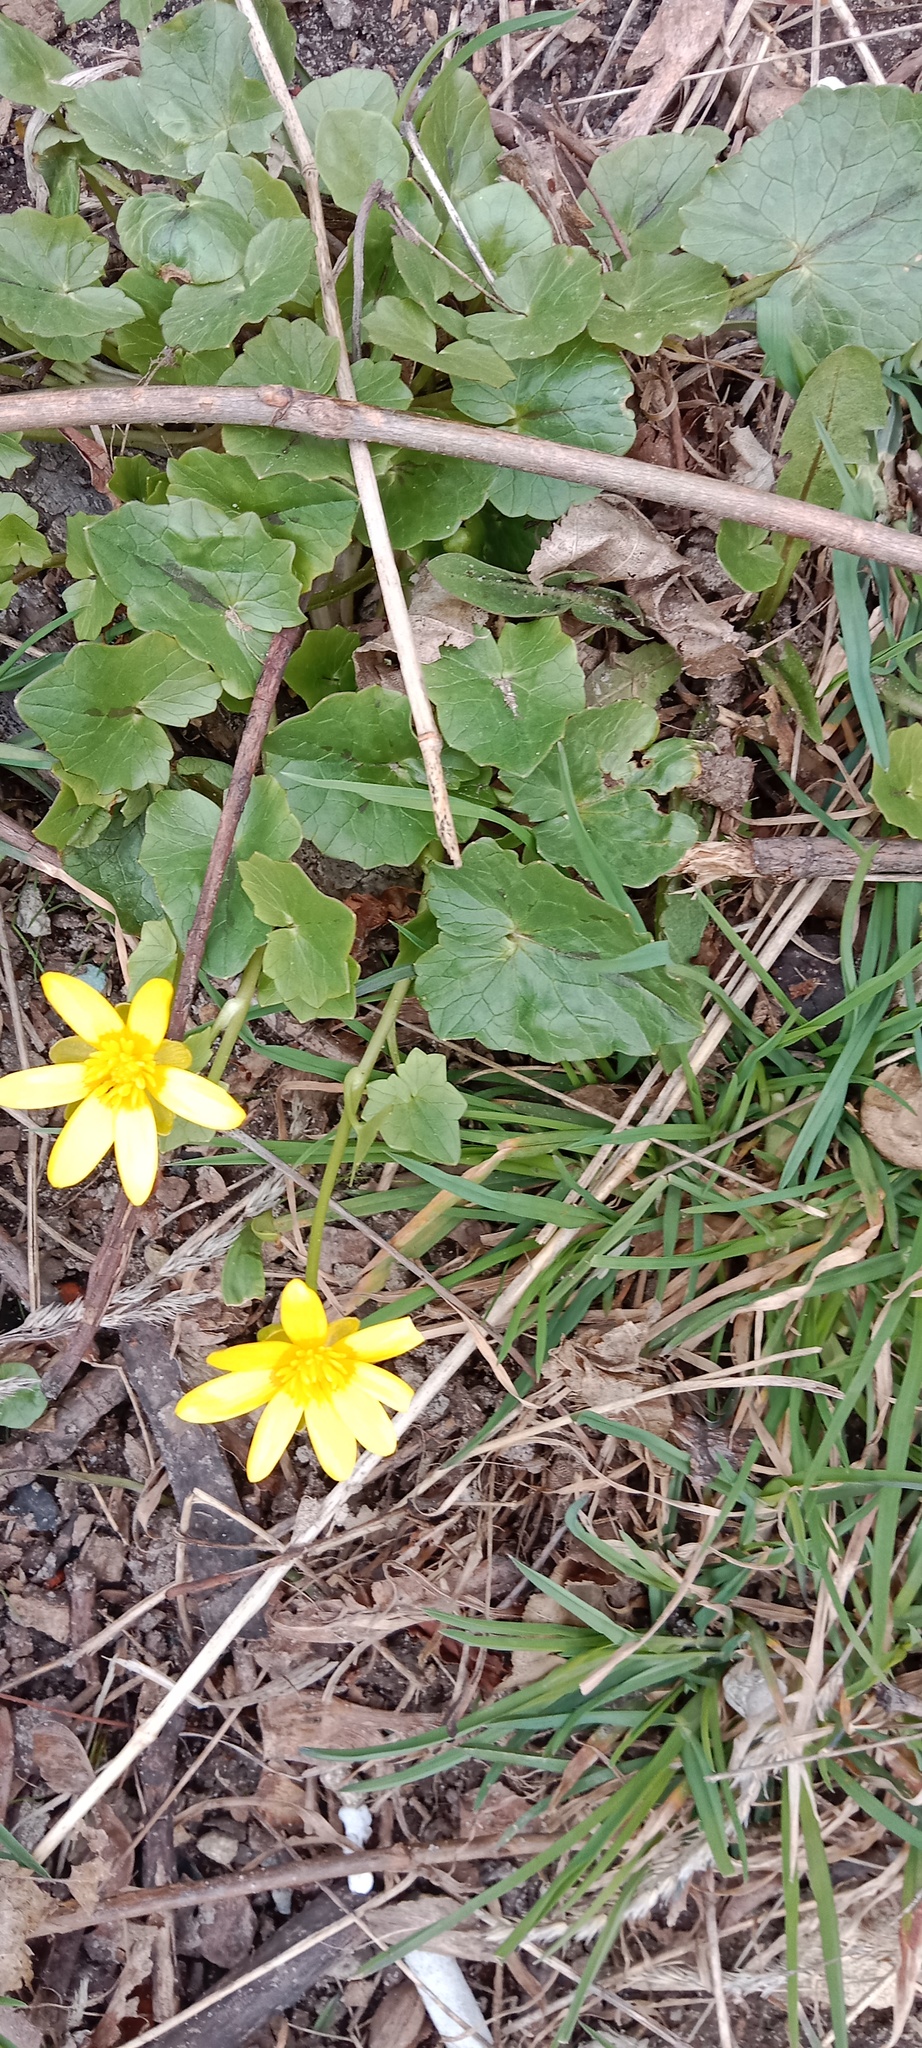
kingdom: Plantae
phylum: Tracheophyta
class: Magnoliopsida
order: Ranunculales
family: Ranunculaceae
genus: Ficaria
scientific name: Ficaria verna
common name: Lesser celandine
